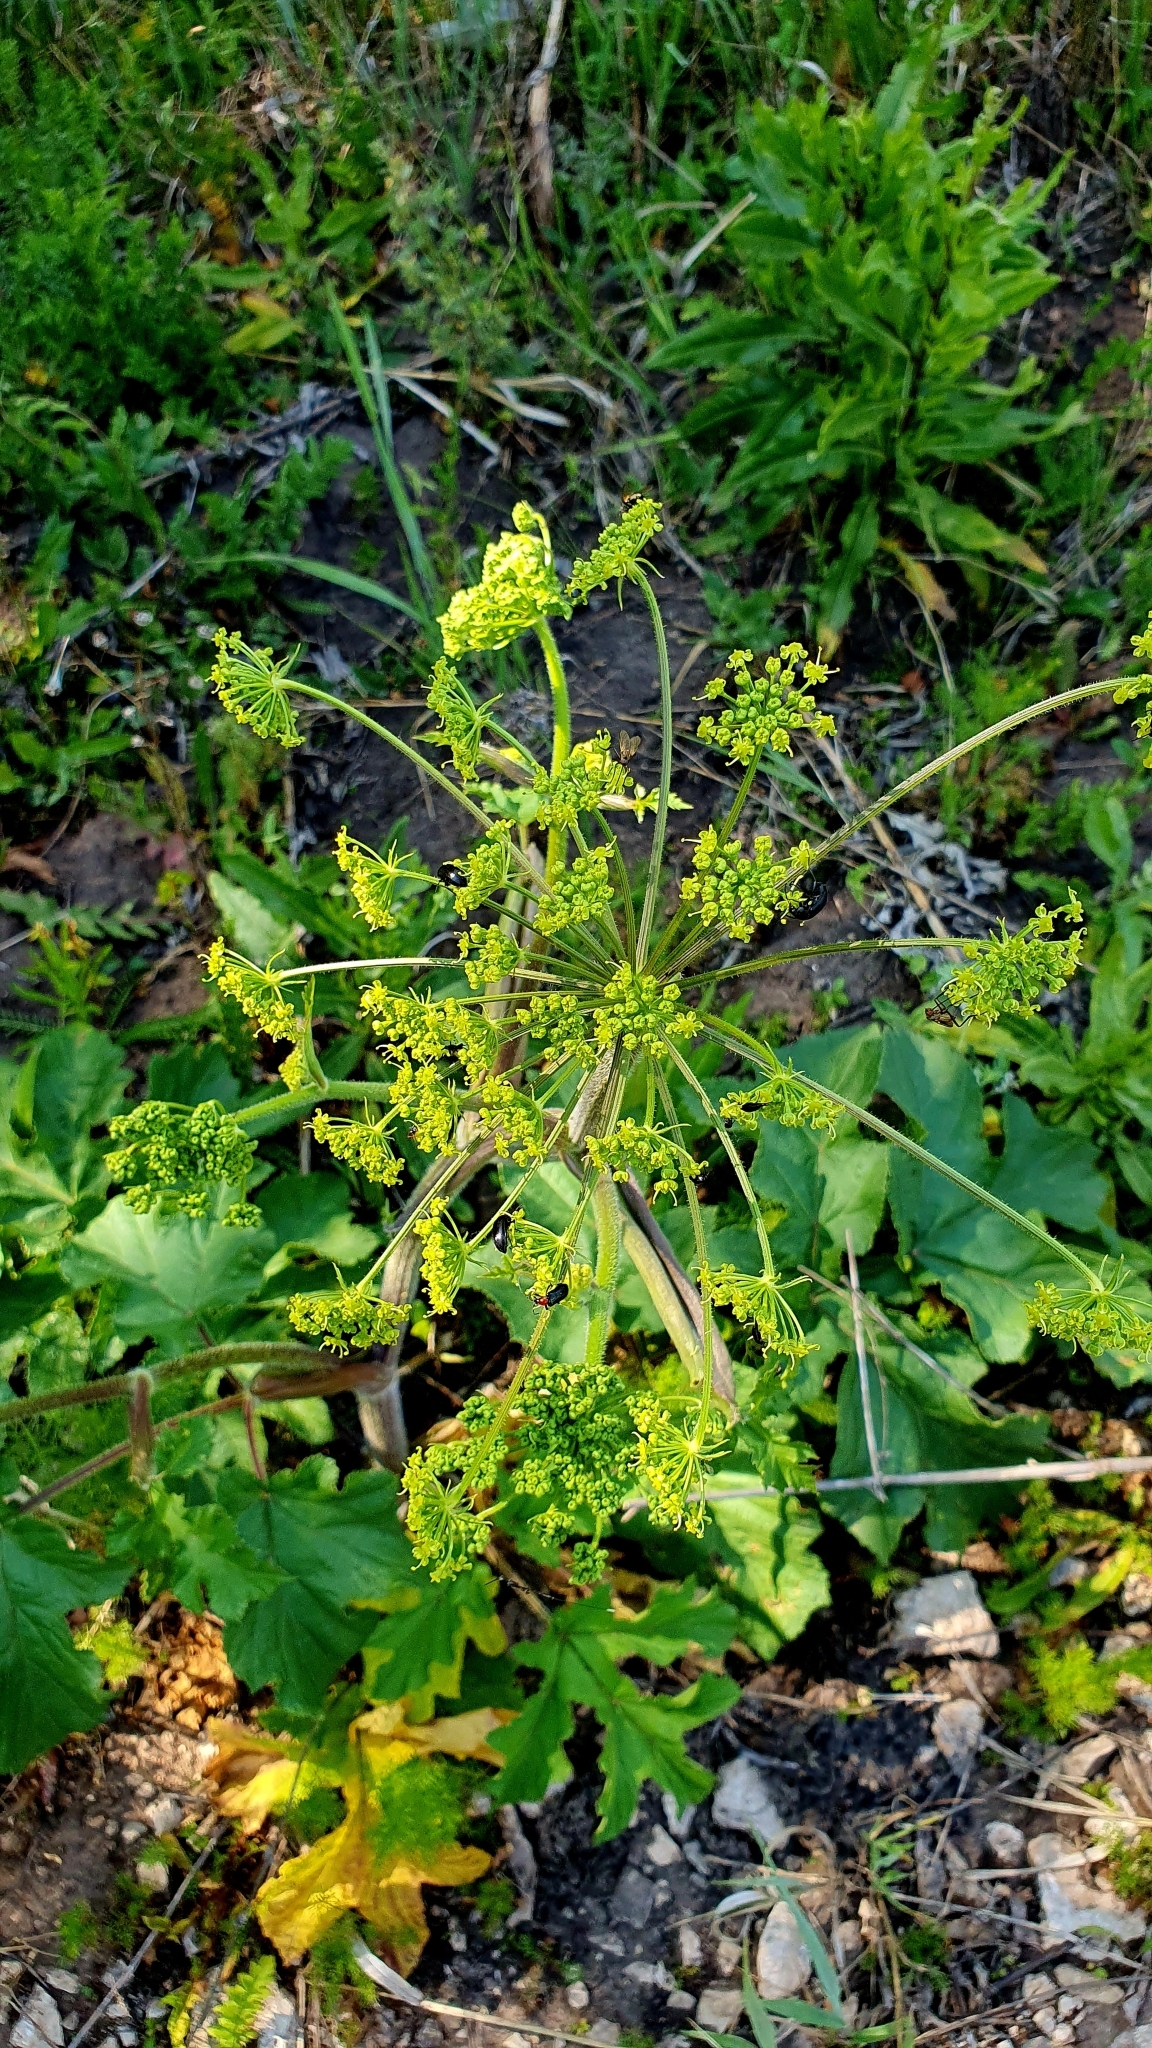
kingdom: Plantae
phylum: Tracheophyta
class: Magnoliopsida
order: Apiales
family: Apiaceae
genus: Heracleum
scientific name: Heracleum sphondylium
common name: Hogweed
